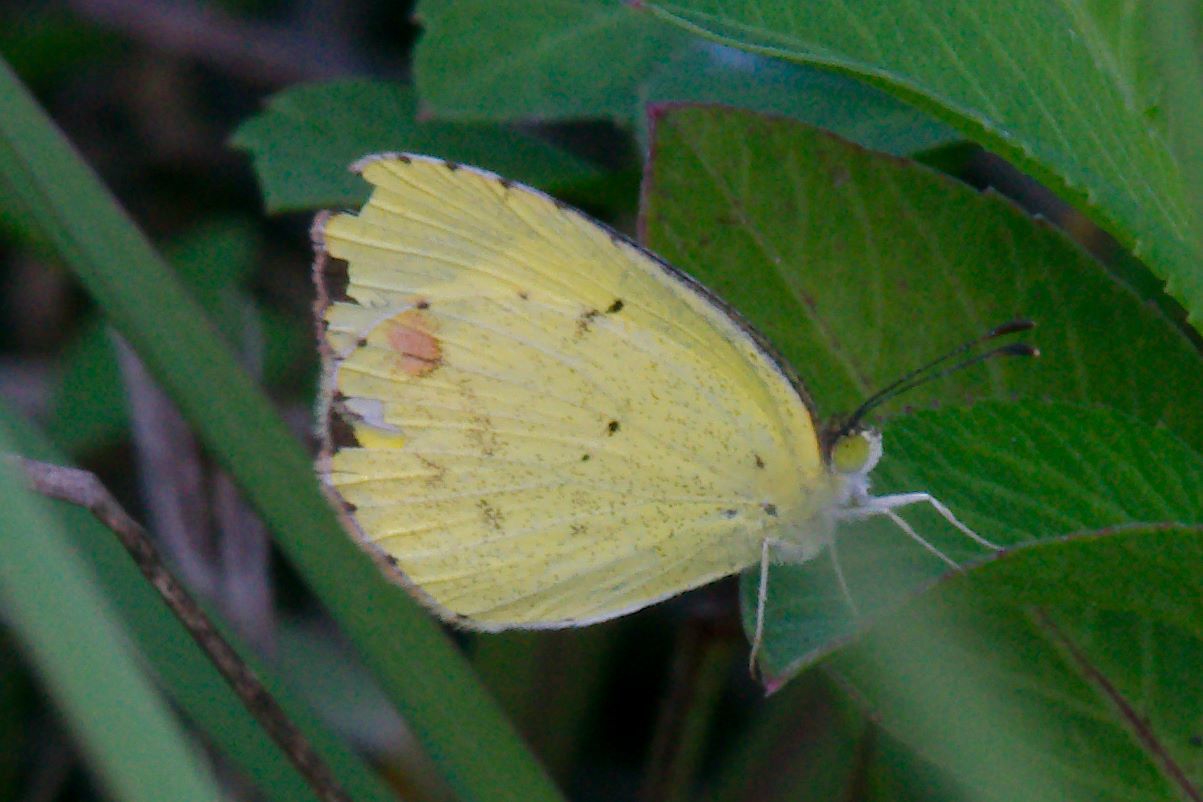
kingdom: Animalia
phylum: Arthropoda
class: Insecta
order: Lepidoptera
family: Pieridae
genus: Pyrisitia
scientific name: Pyrisitia lisa
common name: Little yellow
